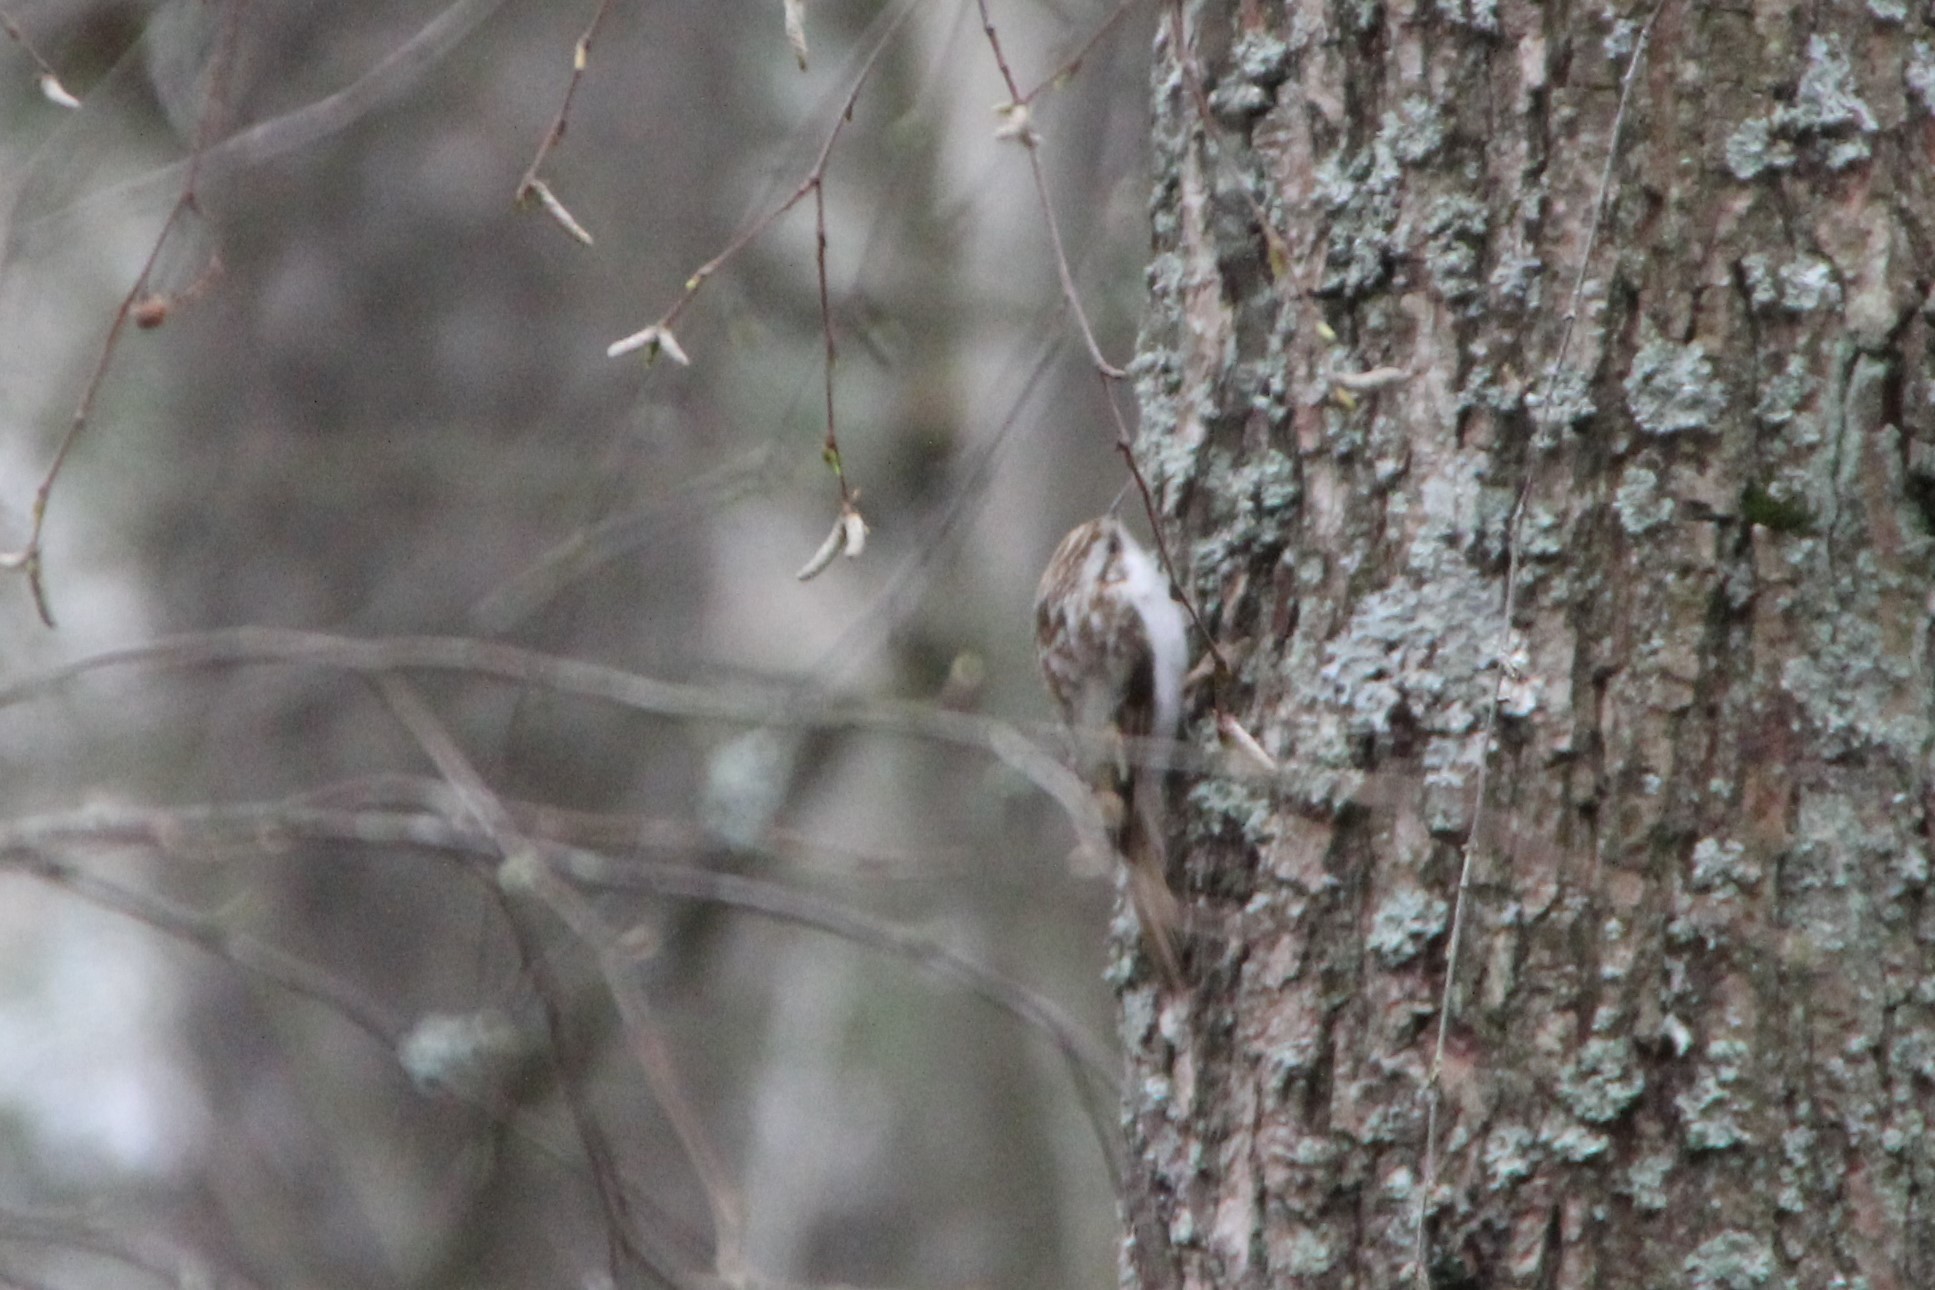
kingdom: Animalia
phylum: Chordata
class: Aves
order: Passeriformes
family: Certhiidae
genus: Certhia
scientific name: Certhia familiaris
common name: Eurasian treecreeper
